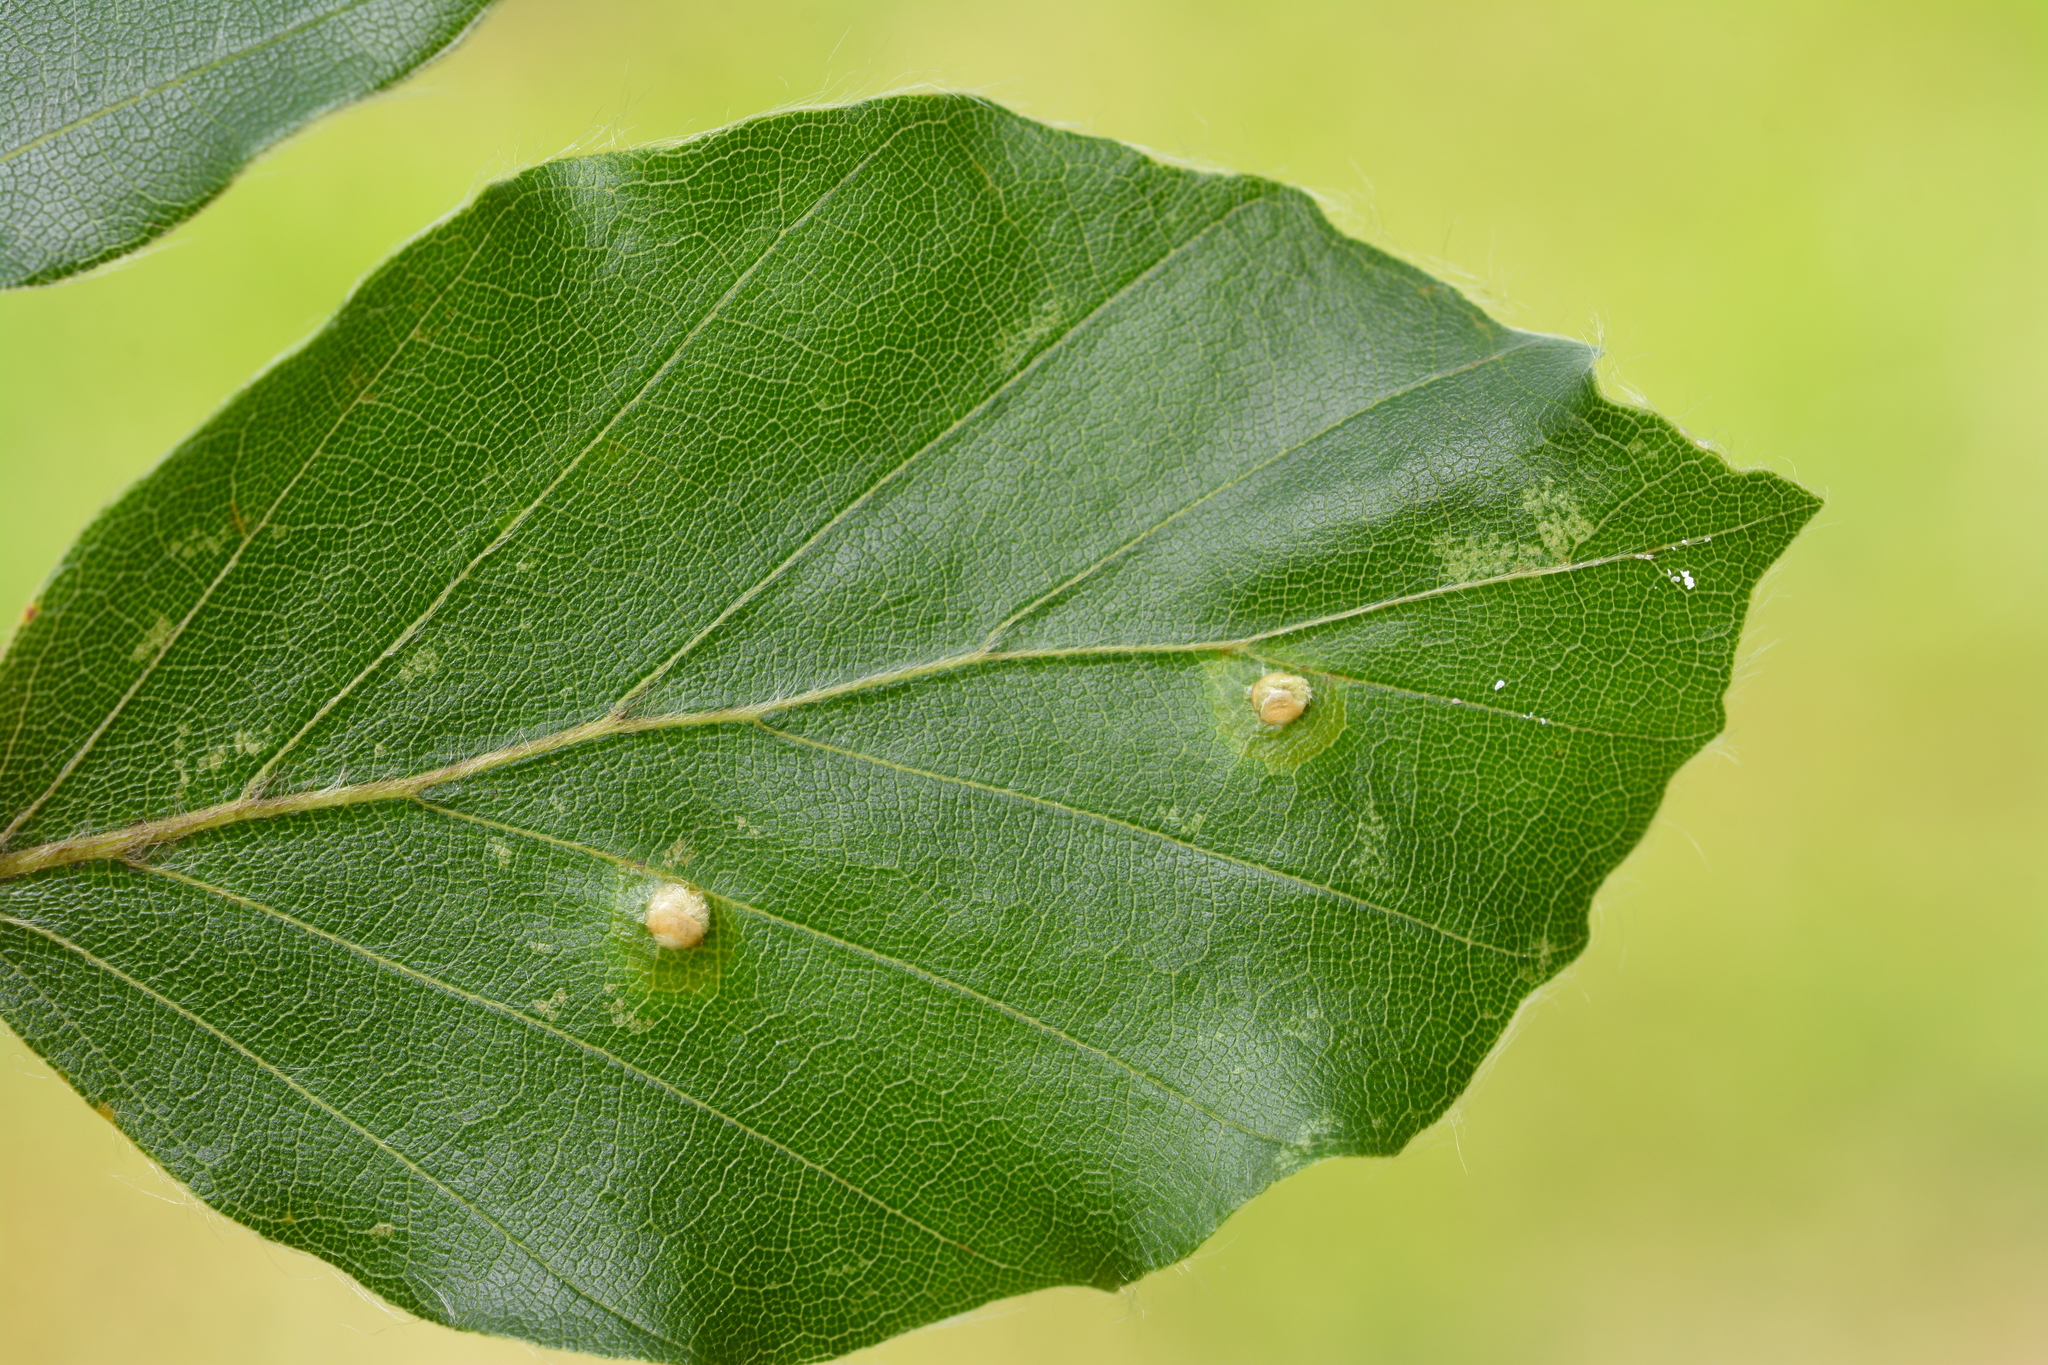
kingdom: Animalia
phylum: Arthropoda
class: Insecta
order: Diptera
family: Cecidomyiidae
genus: Hartigiola
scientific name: Hartigiola annulipes
